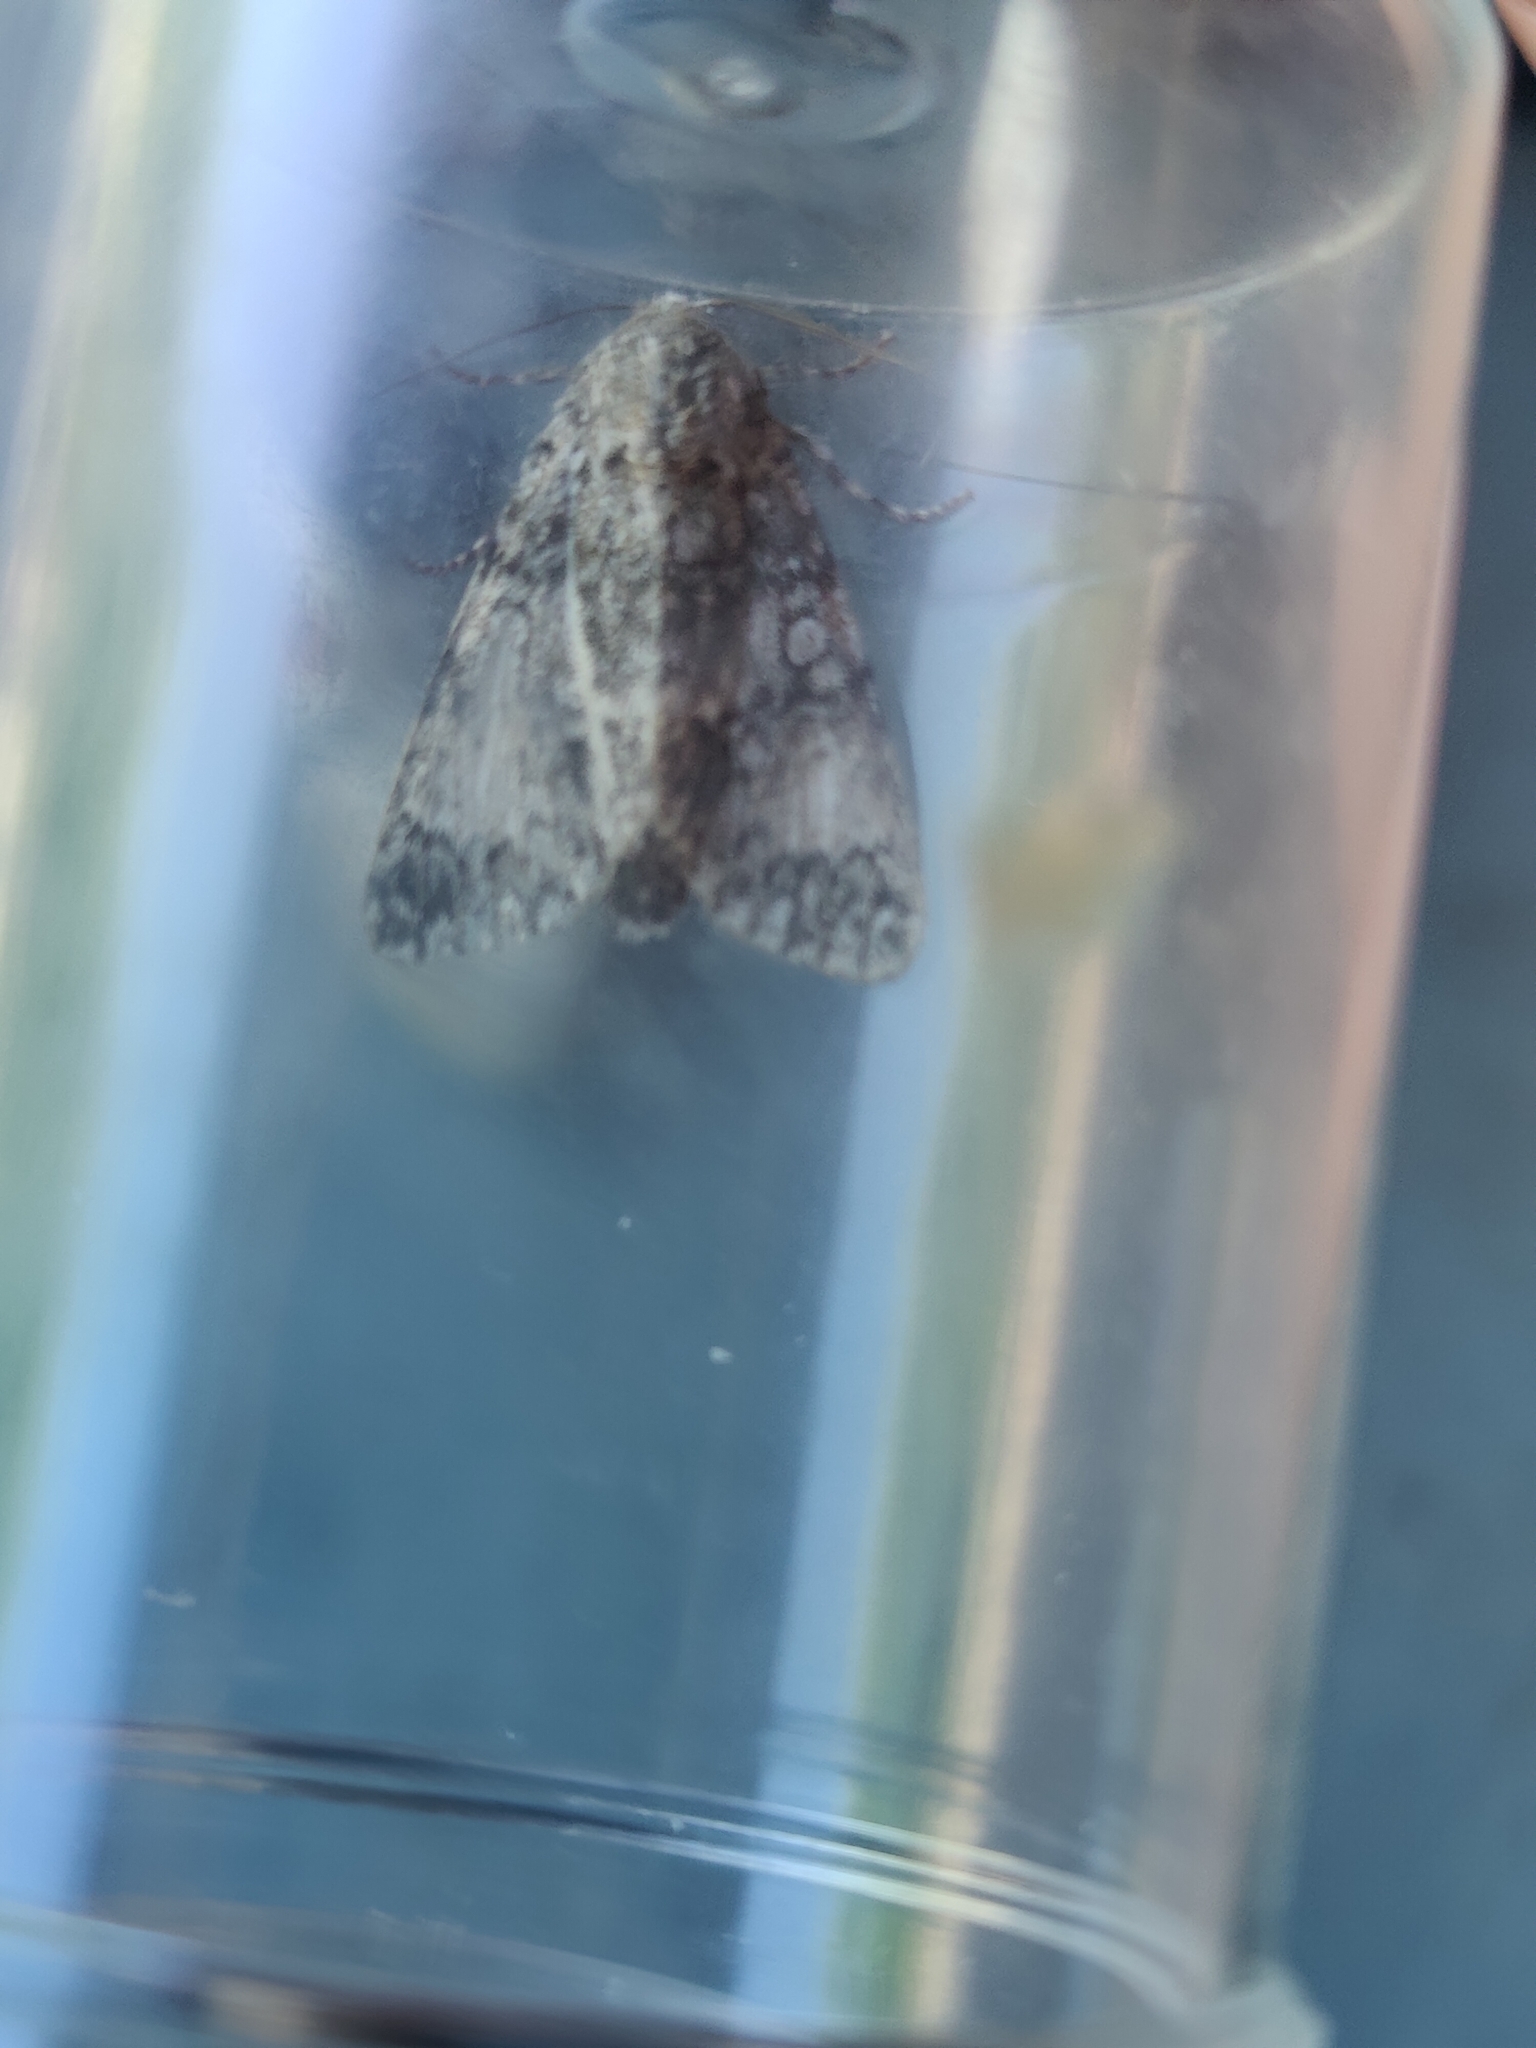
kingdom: Animalia
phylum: Arthropoda
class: Insecta
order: Lepidoptera
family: Noctuidae
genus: Acronicta
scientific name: Acronicta megacephala
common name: Poplar grey
